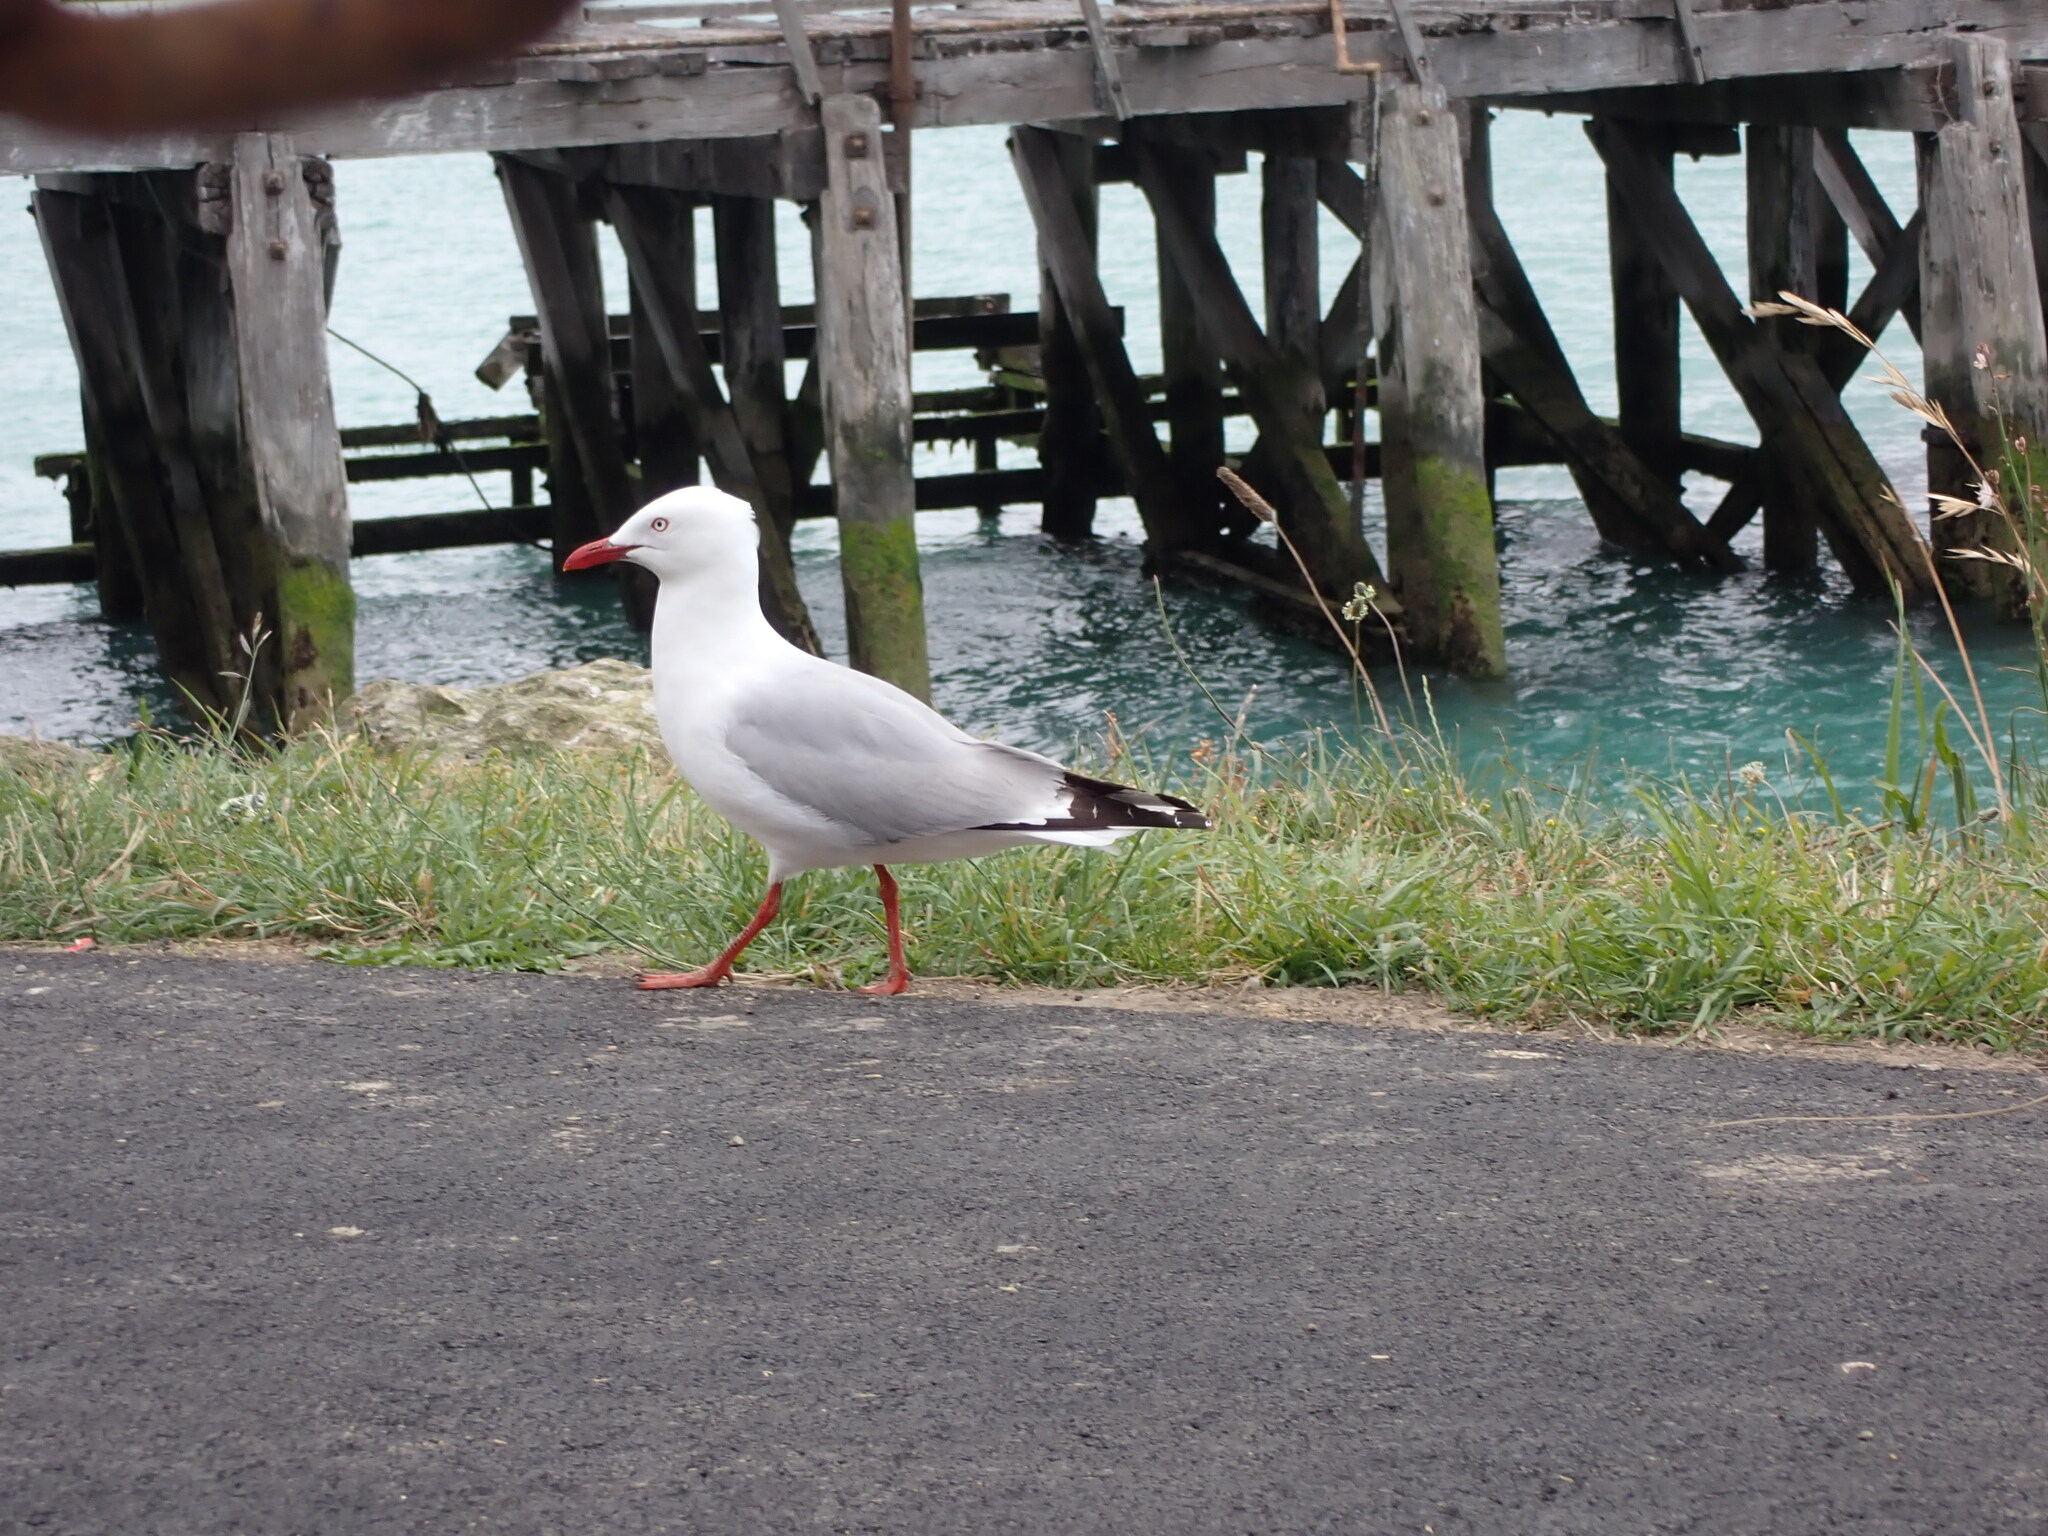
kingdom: Animalia
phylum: Chordata
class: Aves
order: Charadriiformes
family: Laridae
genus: Chroicocephalus
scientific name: Chroicocephalus novaehollandiae
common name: Silver gull
